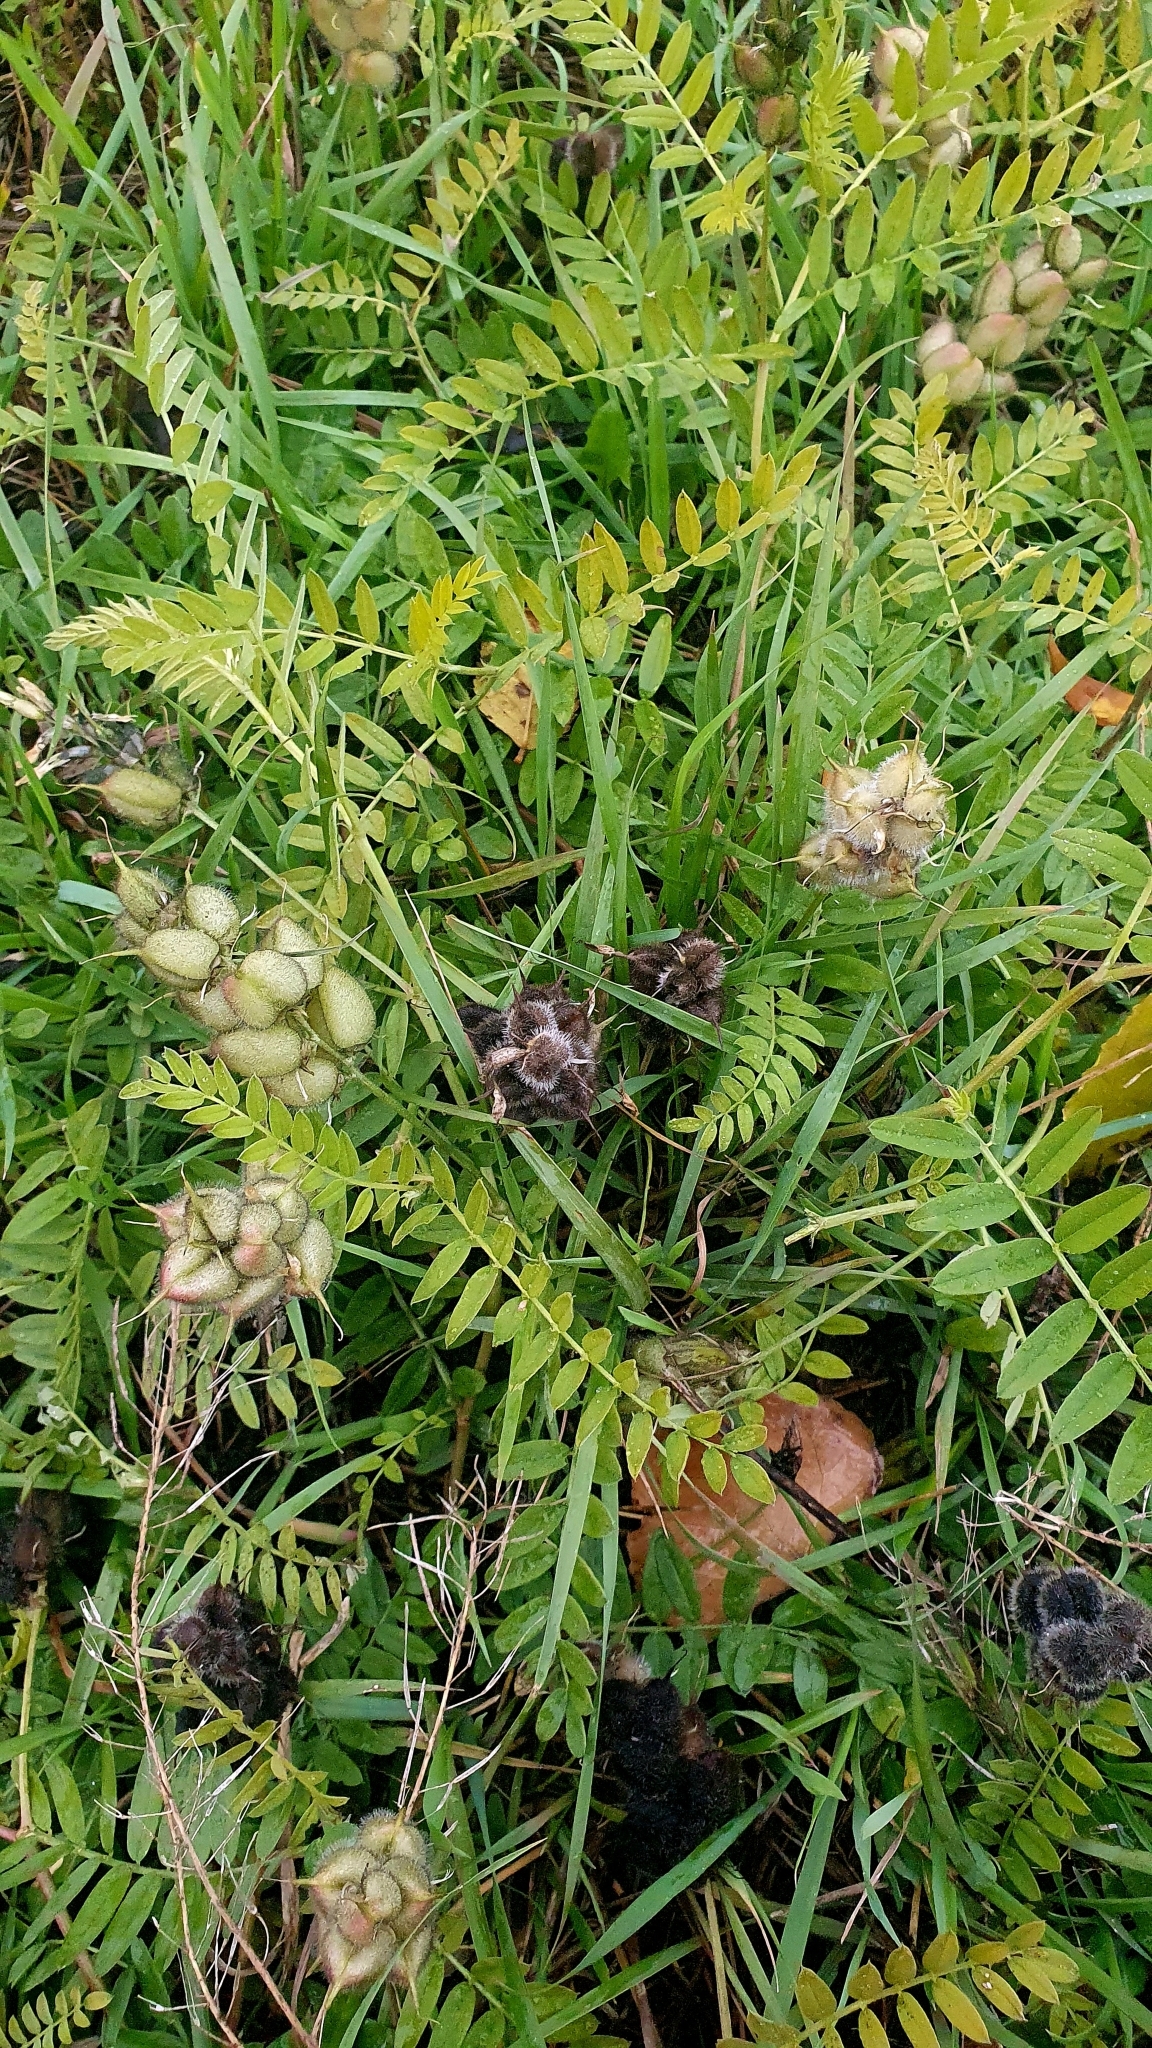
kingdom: Plantae
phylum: Tracheophyta
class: Magnoliopsida
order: Fabales
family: Fabaceae
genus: Astragalus
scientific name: Astragalus cicer
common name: Chick-pea milk-vetch
